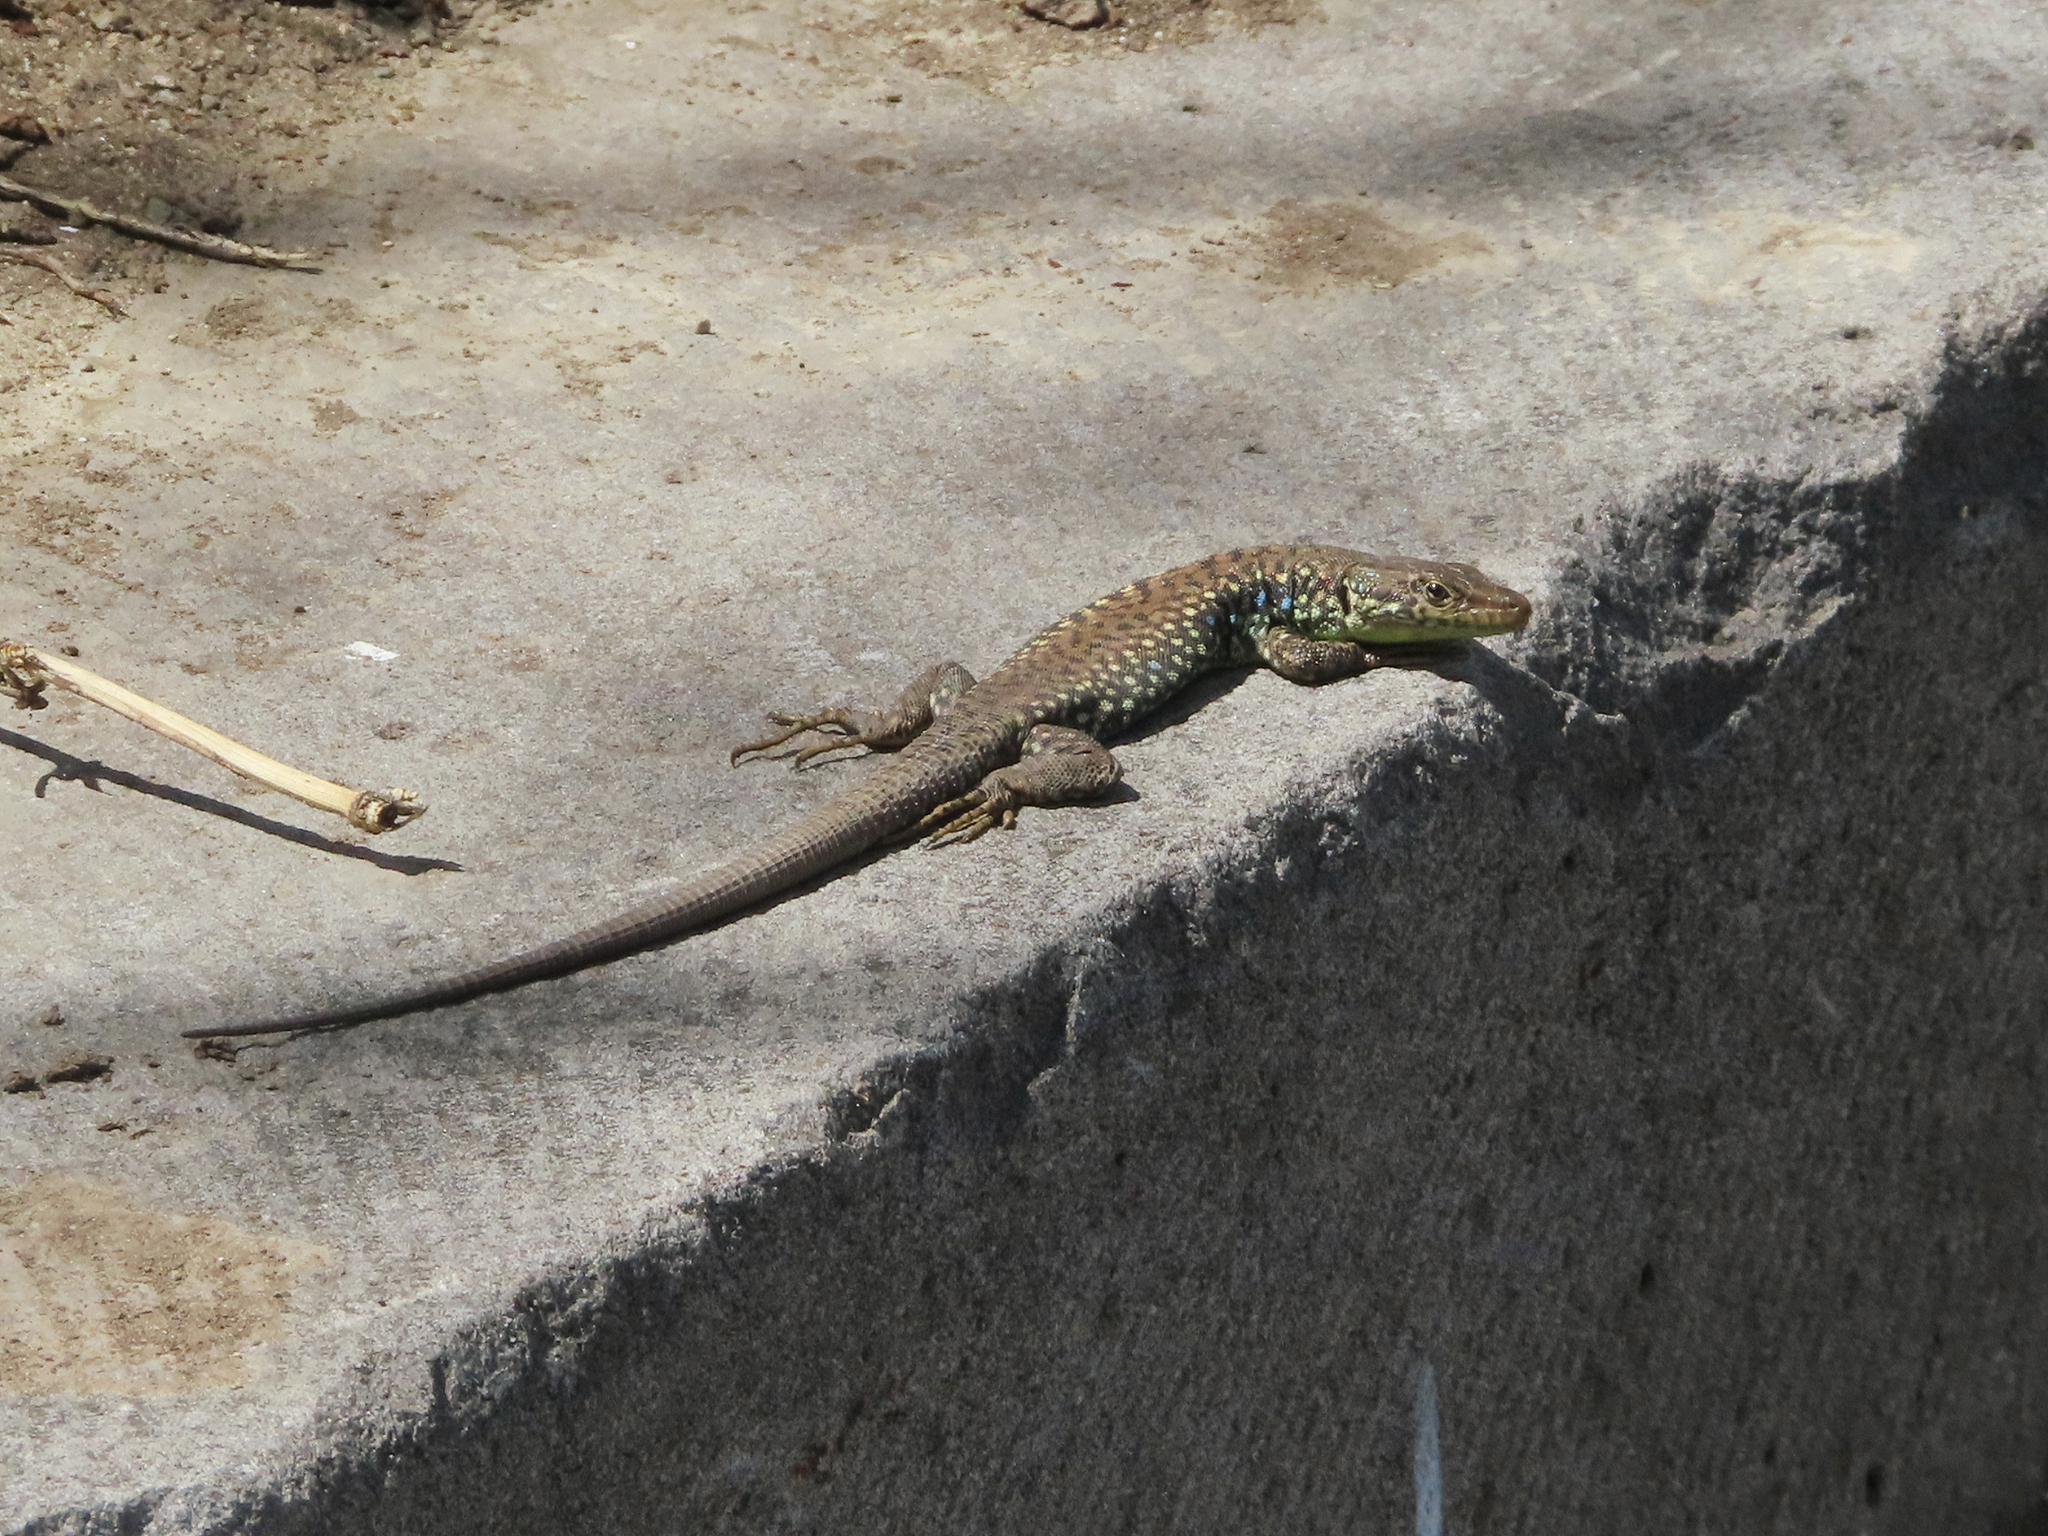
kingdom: Animalia
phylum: Chordata
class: Squamata
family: Lacertidae
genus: Darevskia
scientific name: Darevskia
